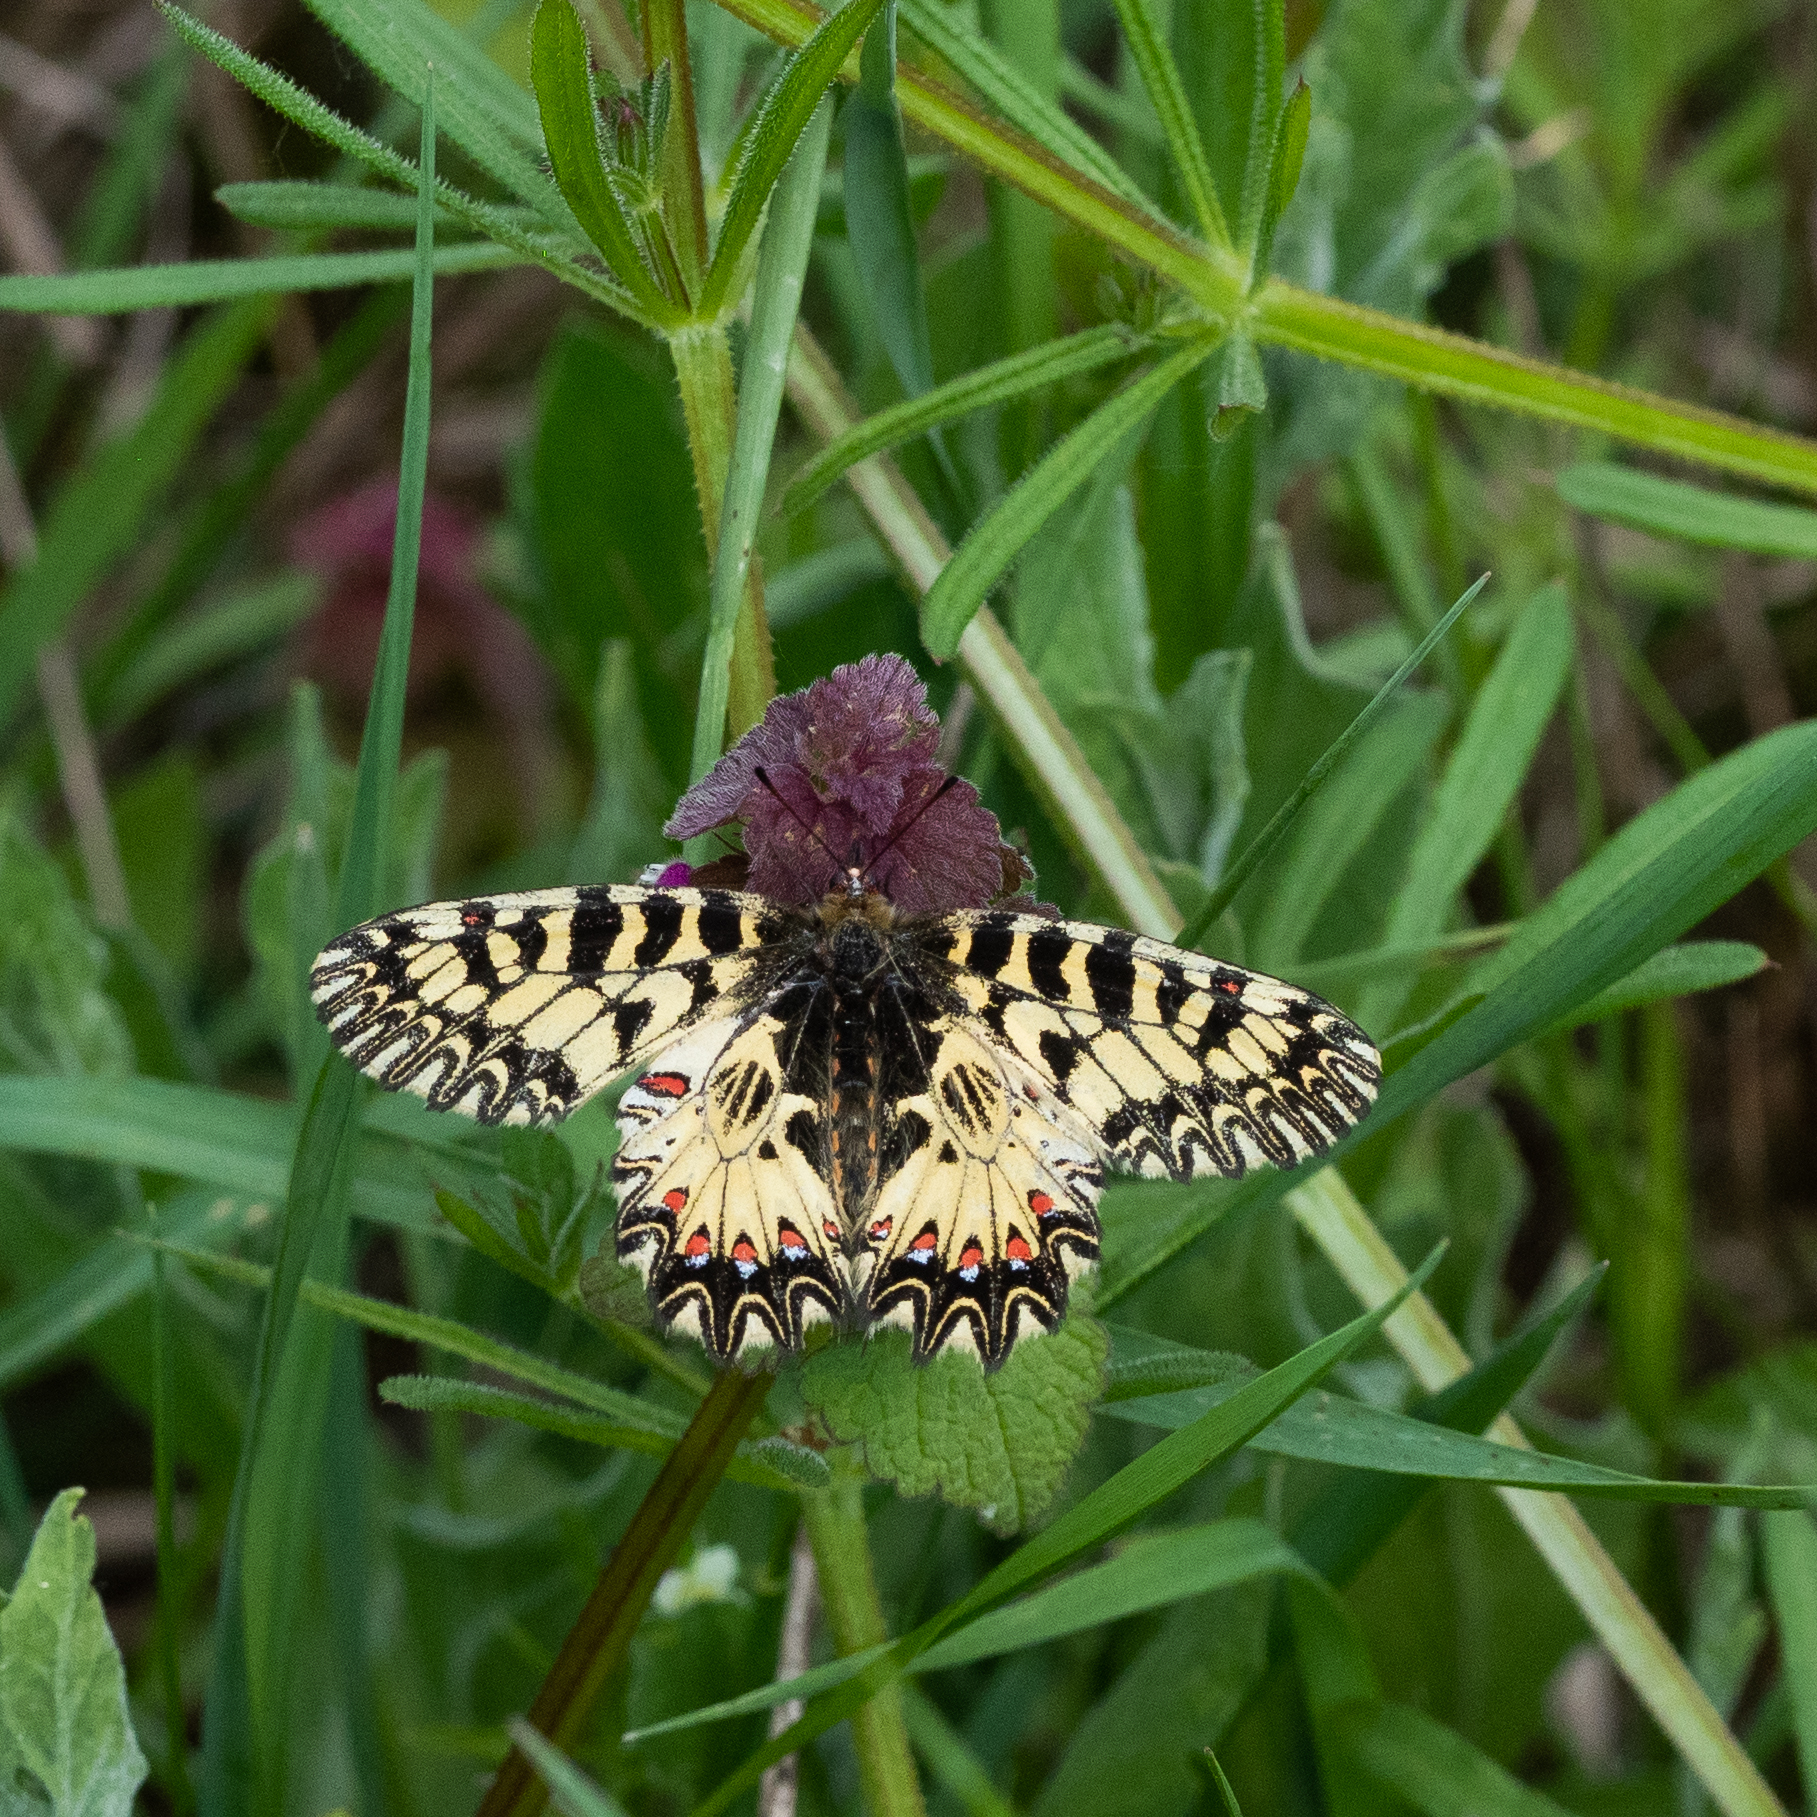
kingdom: Animalia
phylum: Arthropoda
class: Insecta
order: Lepidoptera
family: Papilionidae
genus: Zerynthia
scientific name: Zerynthia polyxena
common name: Southern festoon
